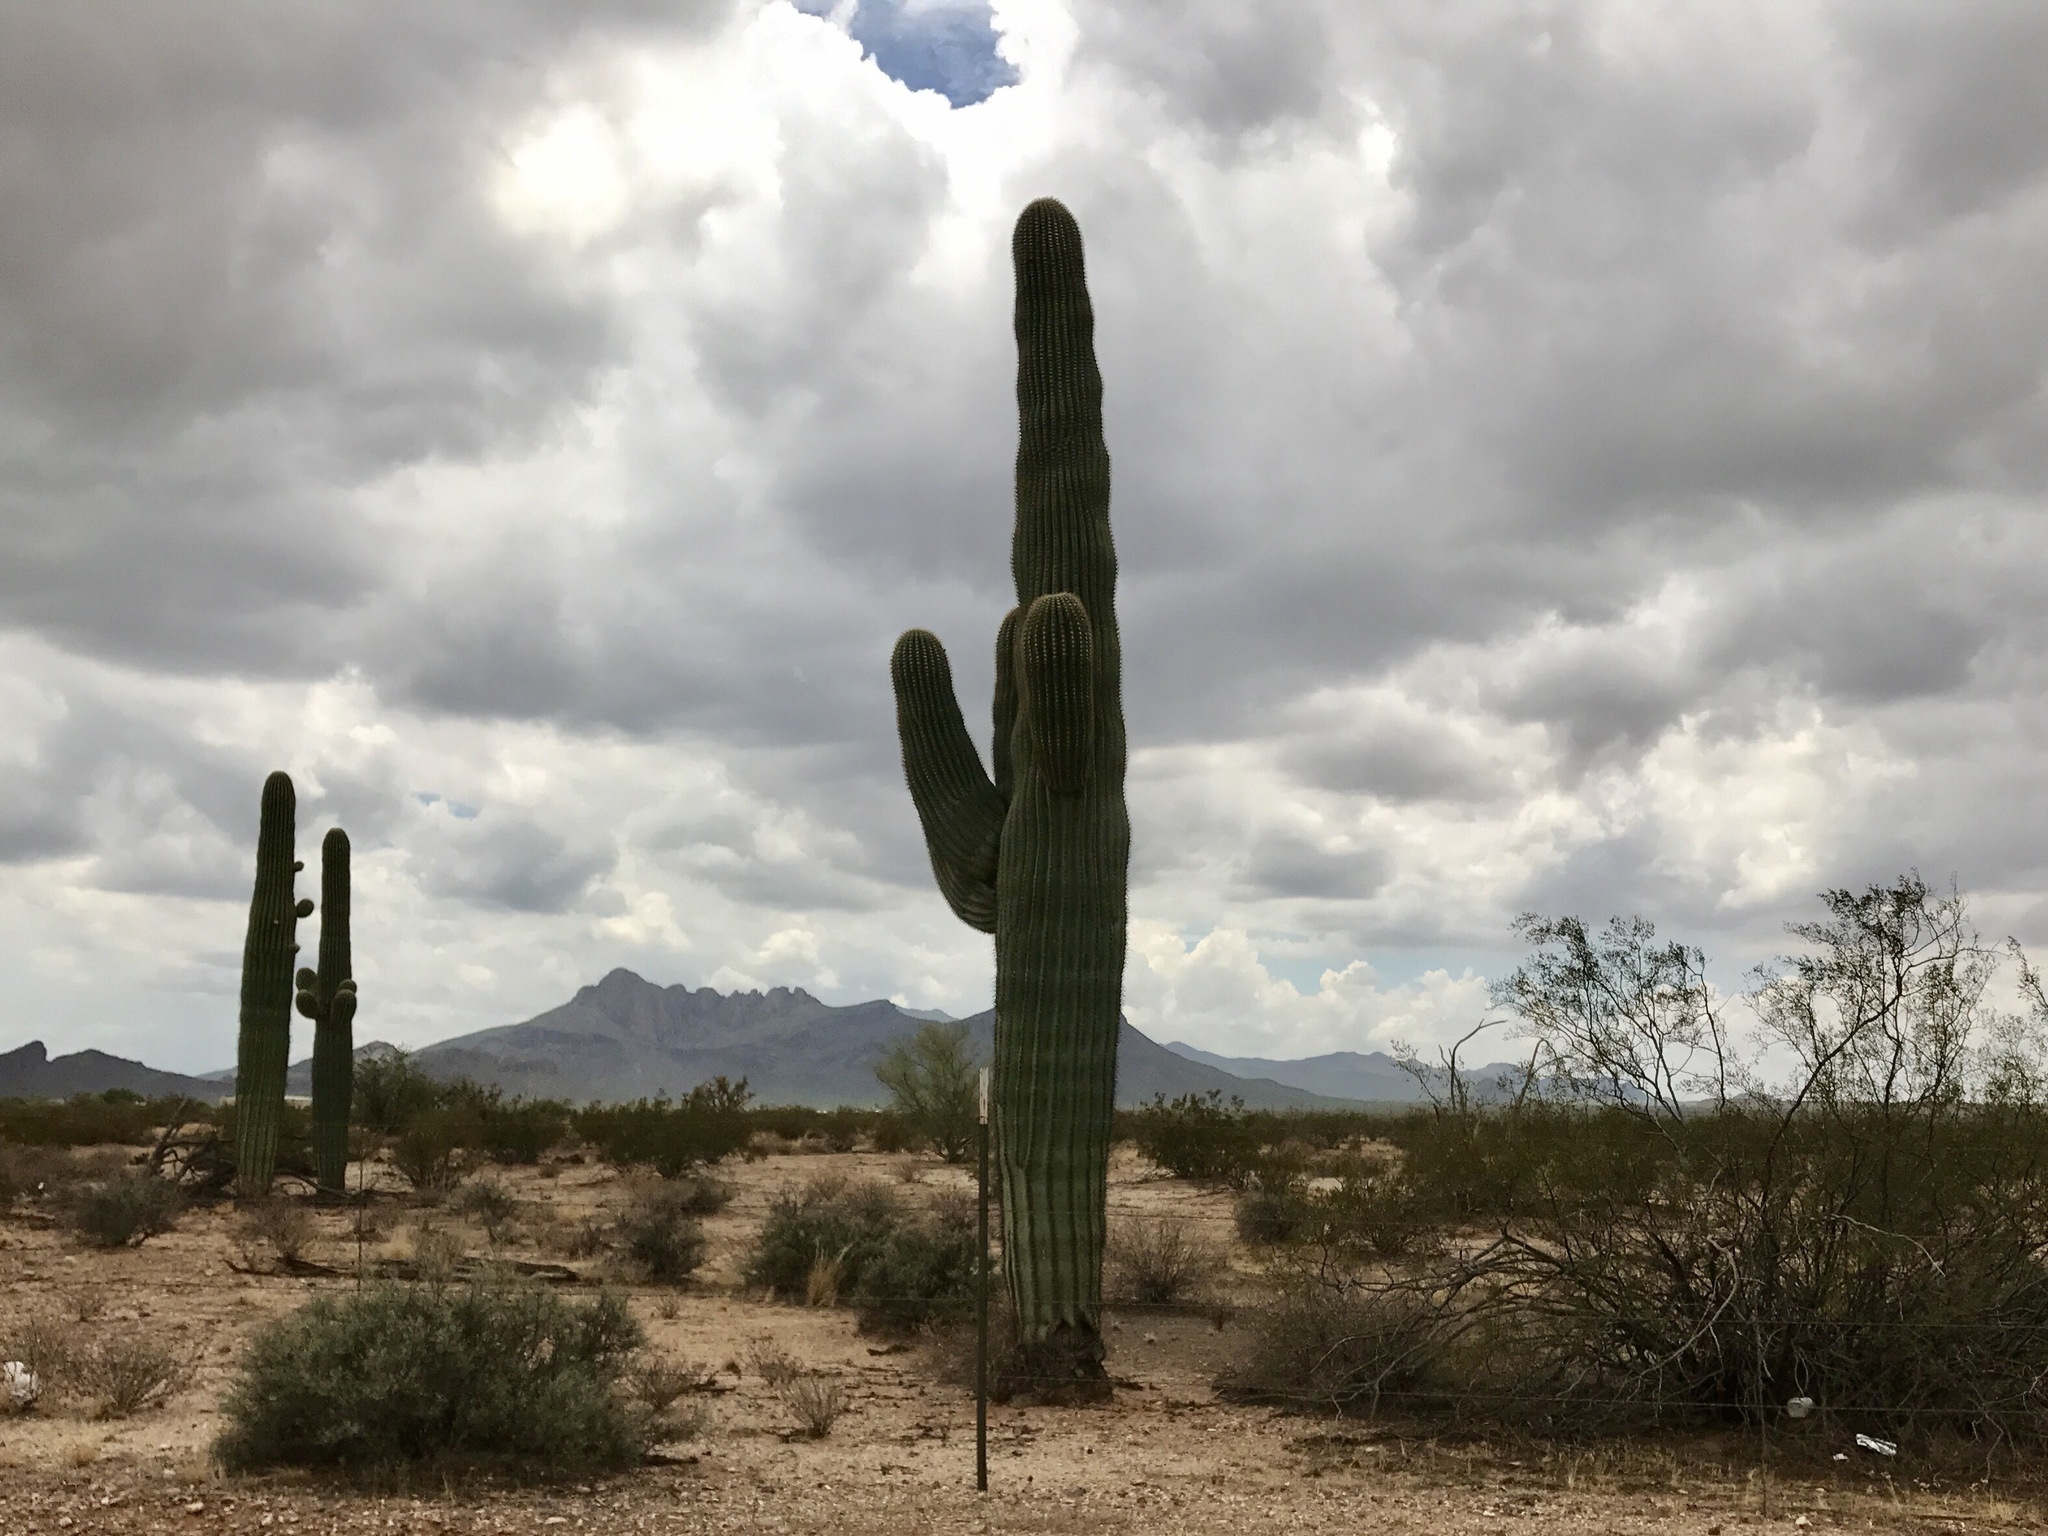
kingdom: Plantae
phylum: Tracheophyta
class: Magnoliopsida
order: Caryophyllales
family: Cactaceae
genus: Carnegiea
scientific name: Carnegiea gigantea
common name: Saguaro
